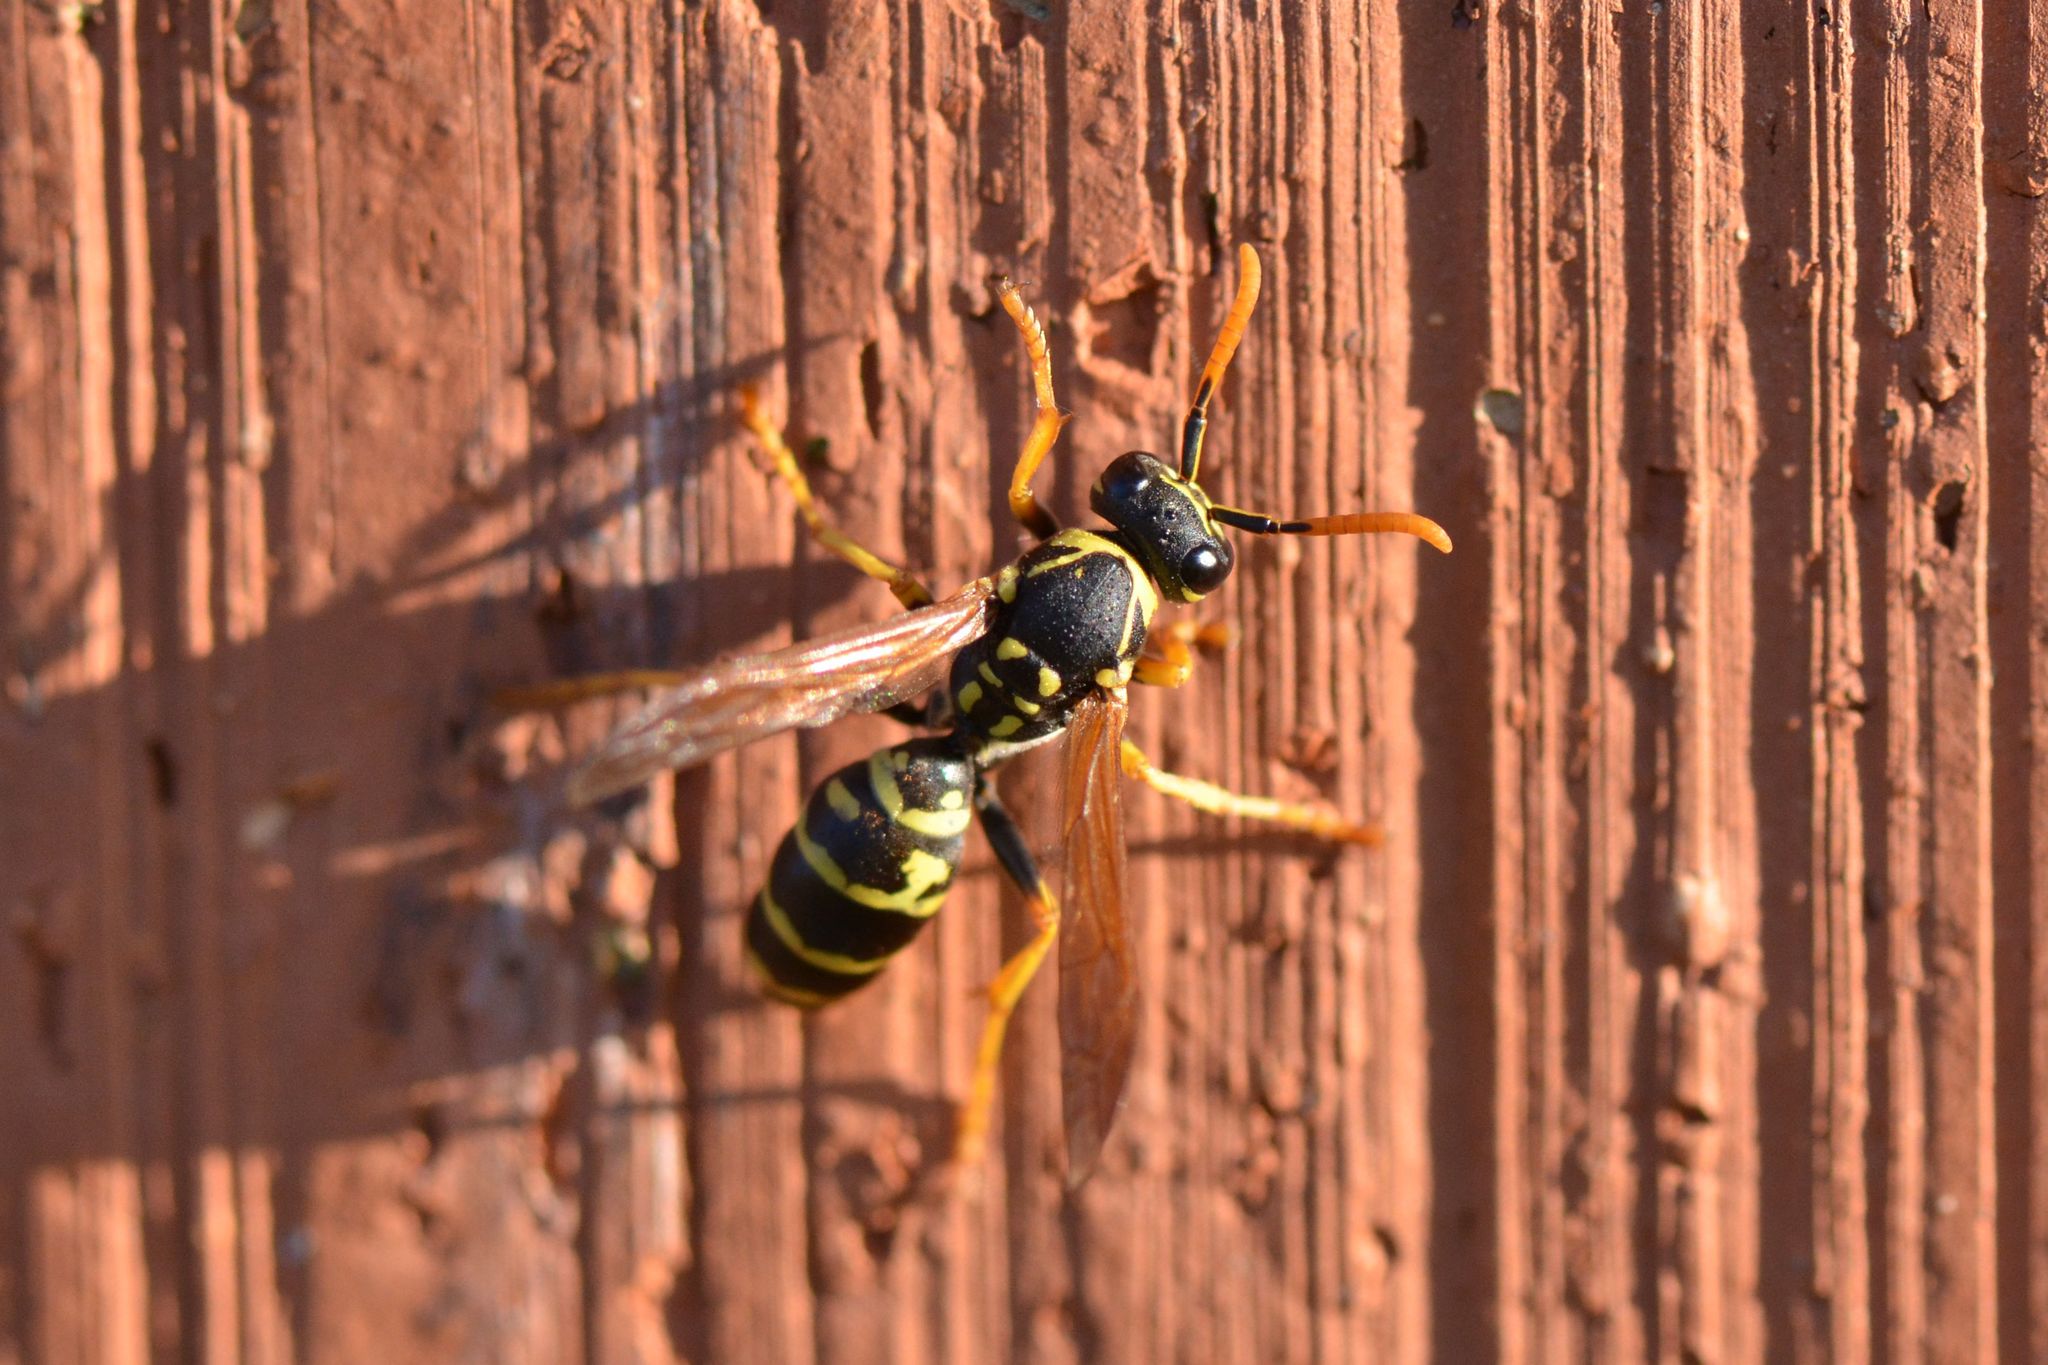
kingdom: Animalia
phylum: Arthropoda
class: Insecta
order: Hymenoptera
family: Eumenidae
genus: Polistes
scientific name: Polistes dominula
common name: Paper wasp
